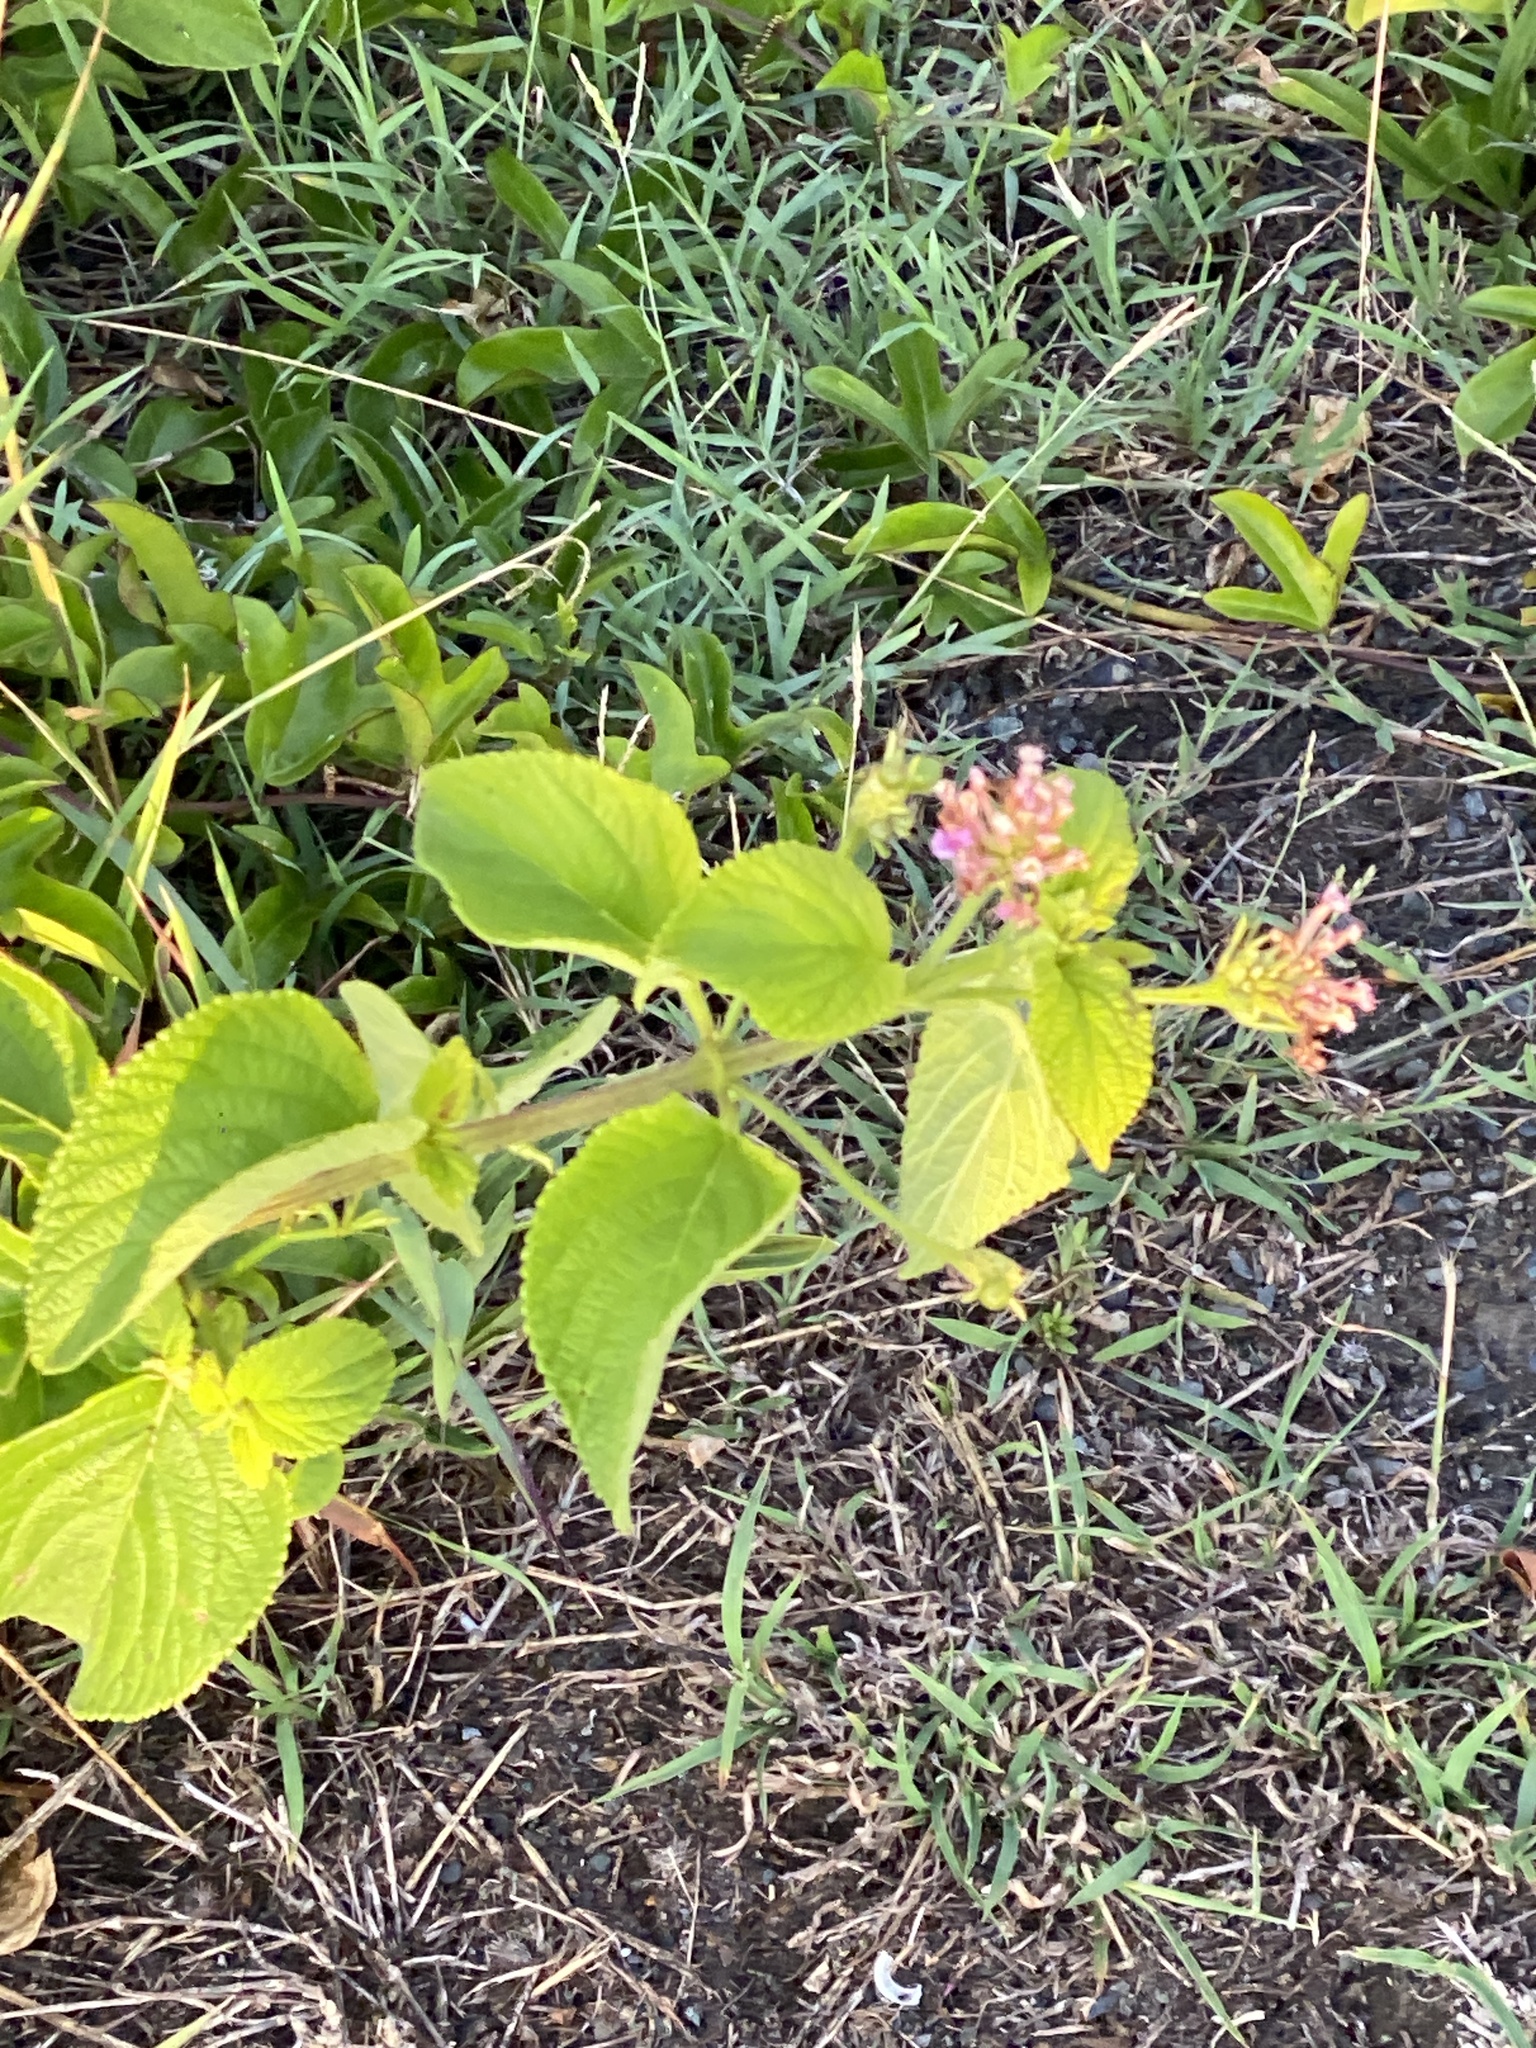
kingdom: Plantae
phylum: Tracheophyta
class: Magnoliopsida
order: Lamiales
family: Verbenaceae
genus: Lantana
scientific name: Lantana camara
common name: Lantana
